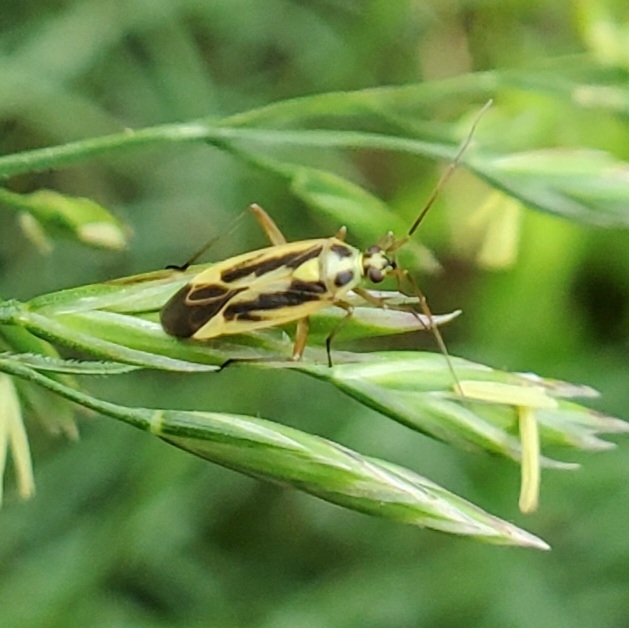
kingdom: Animalia
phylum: Arthropoda
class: Insecta
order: Hemiptera
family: Miridae
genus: Stenotus
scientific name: Stenotus binotatus
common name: Plant bug
